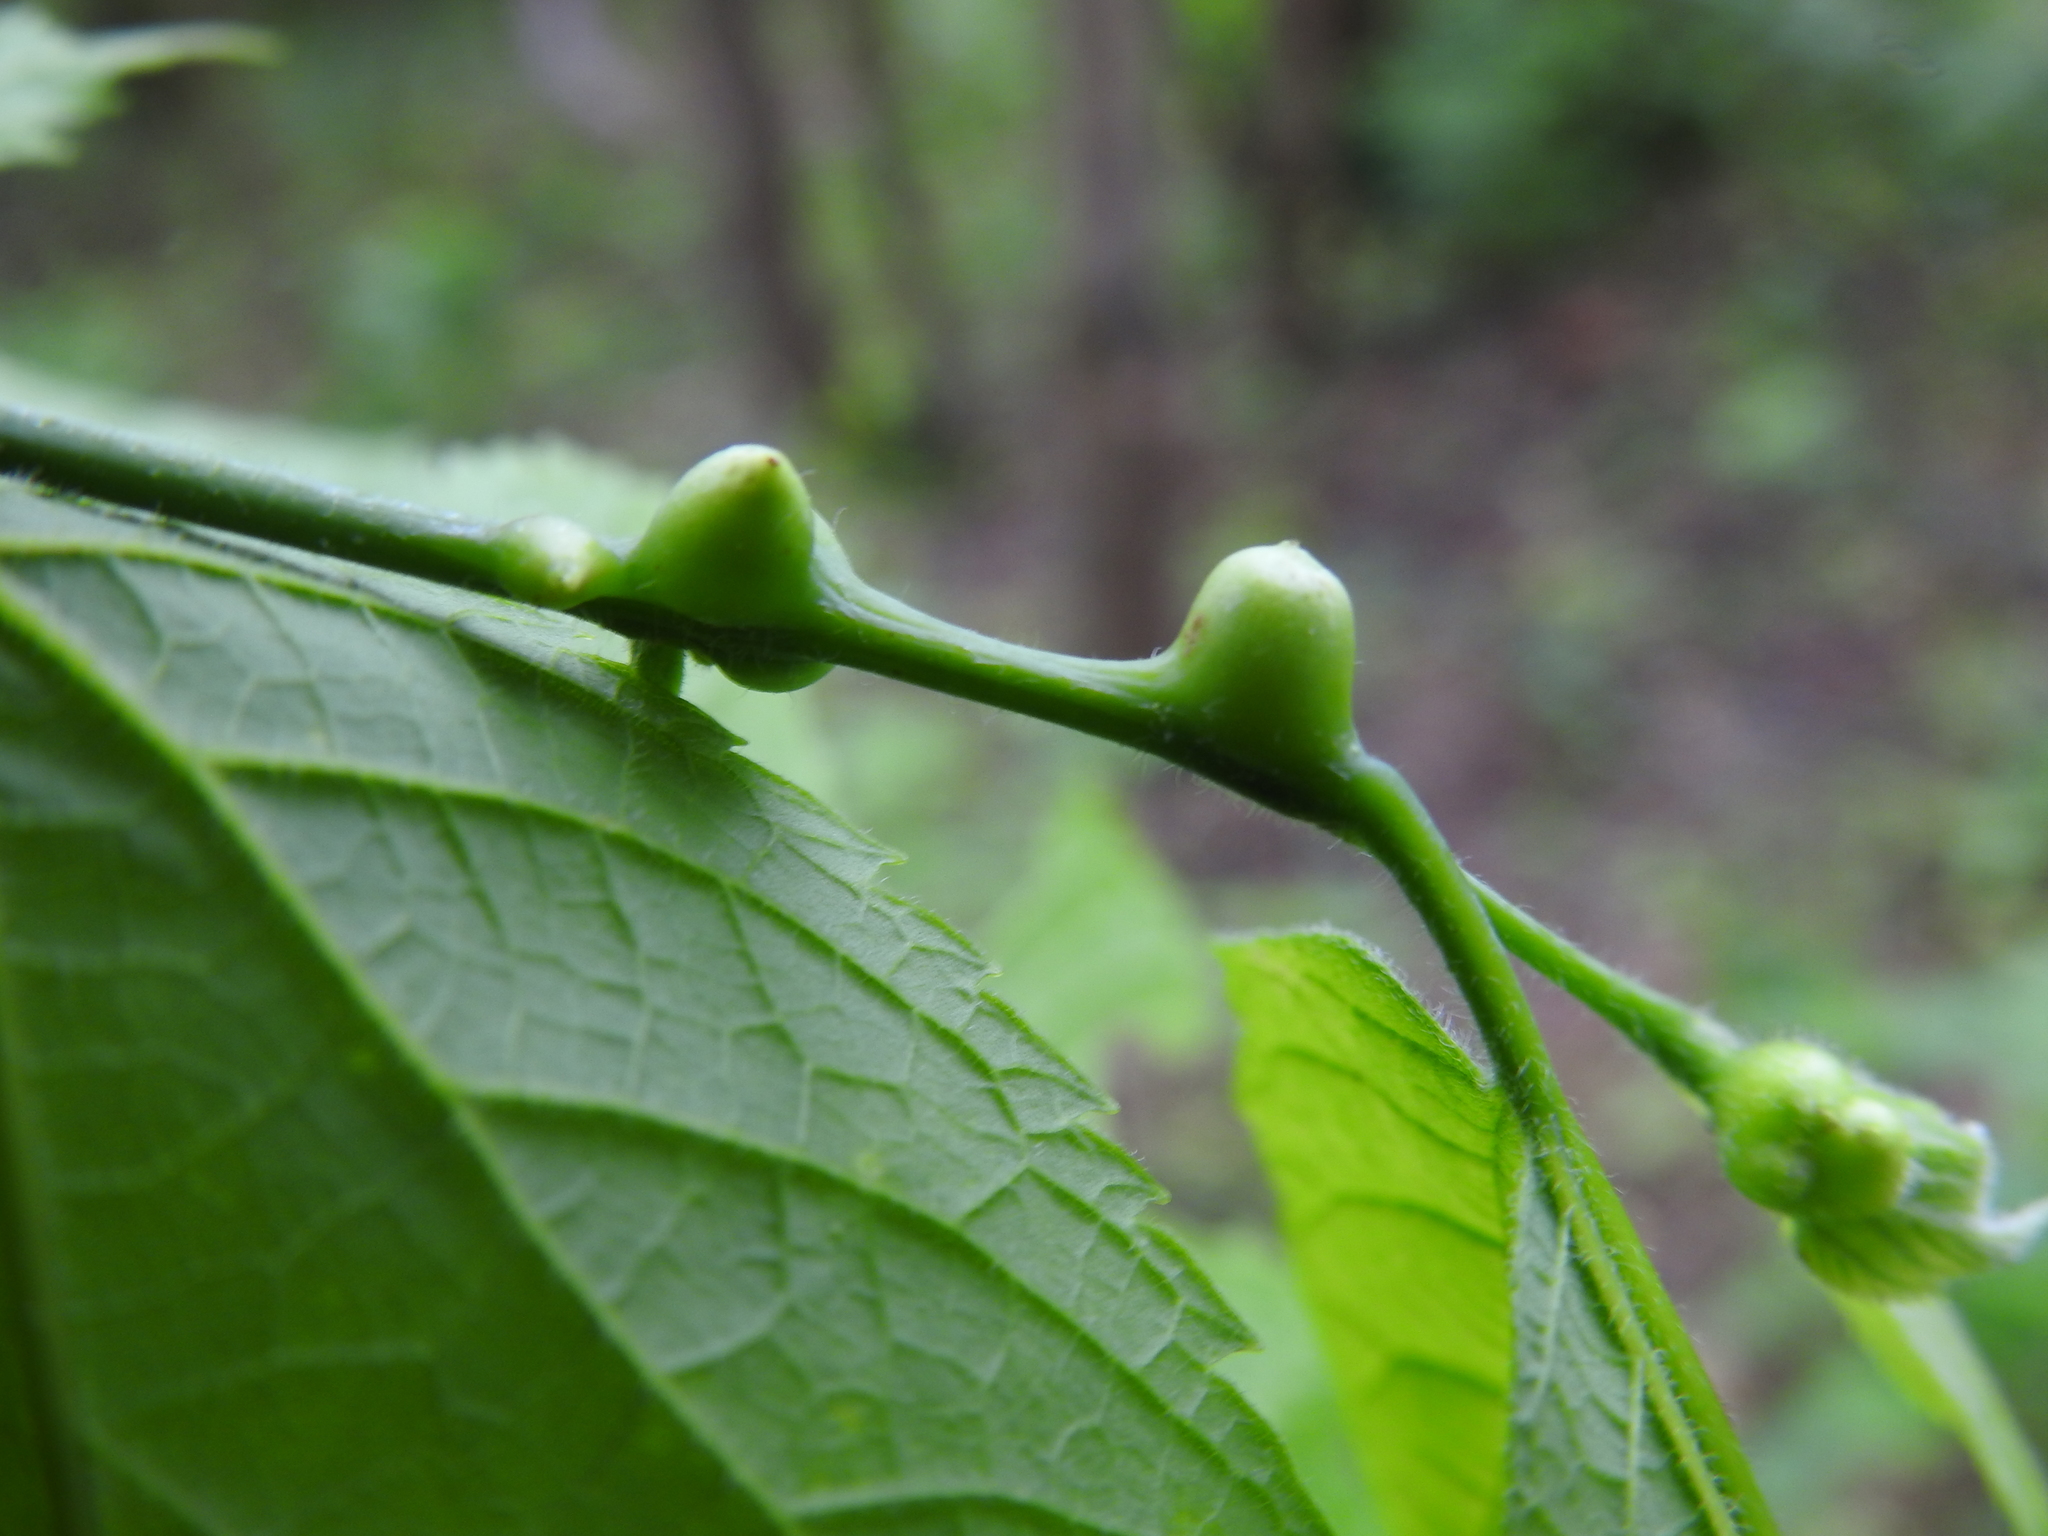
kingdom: Animalia
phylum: Arthropoda
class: Insecta
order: Diptera
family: Cecidomyiidae
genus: Celticecis
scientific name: Celticecis expulsa
